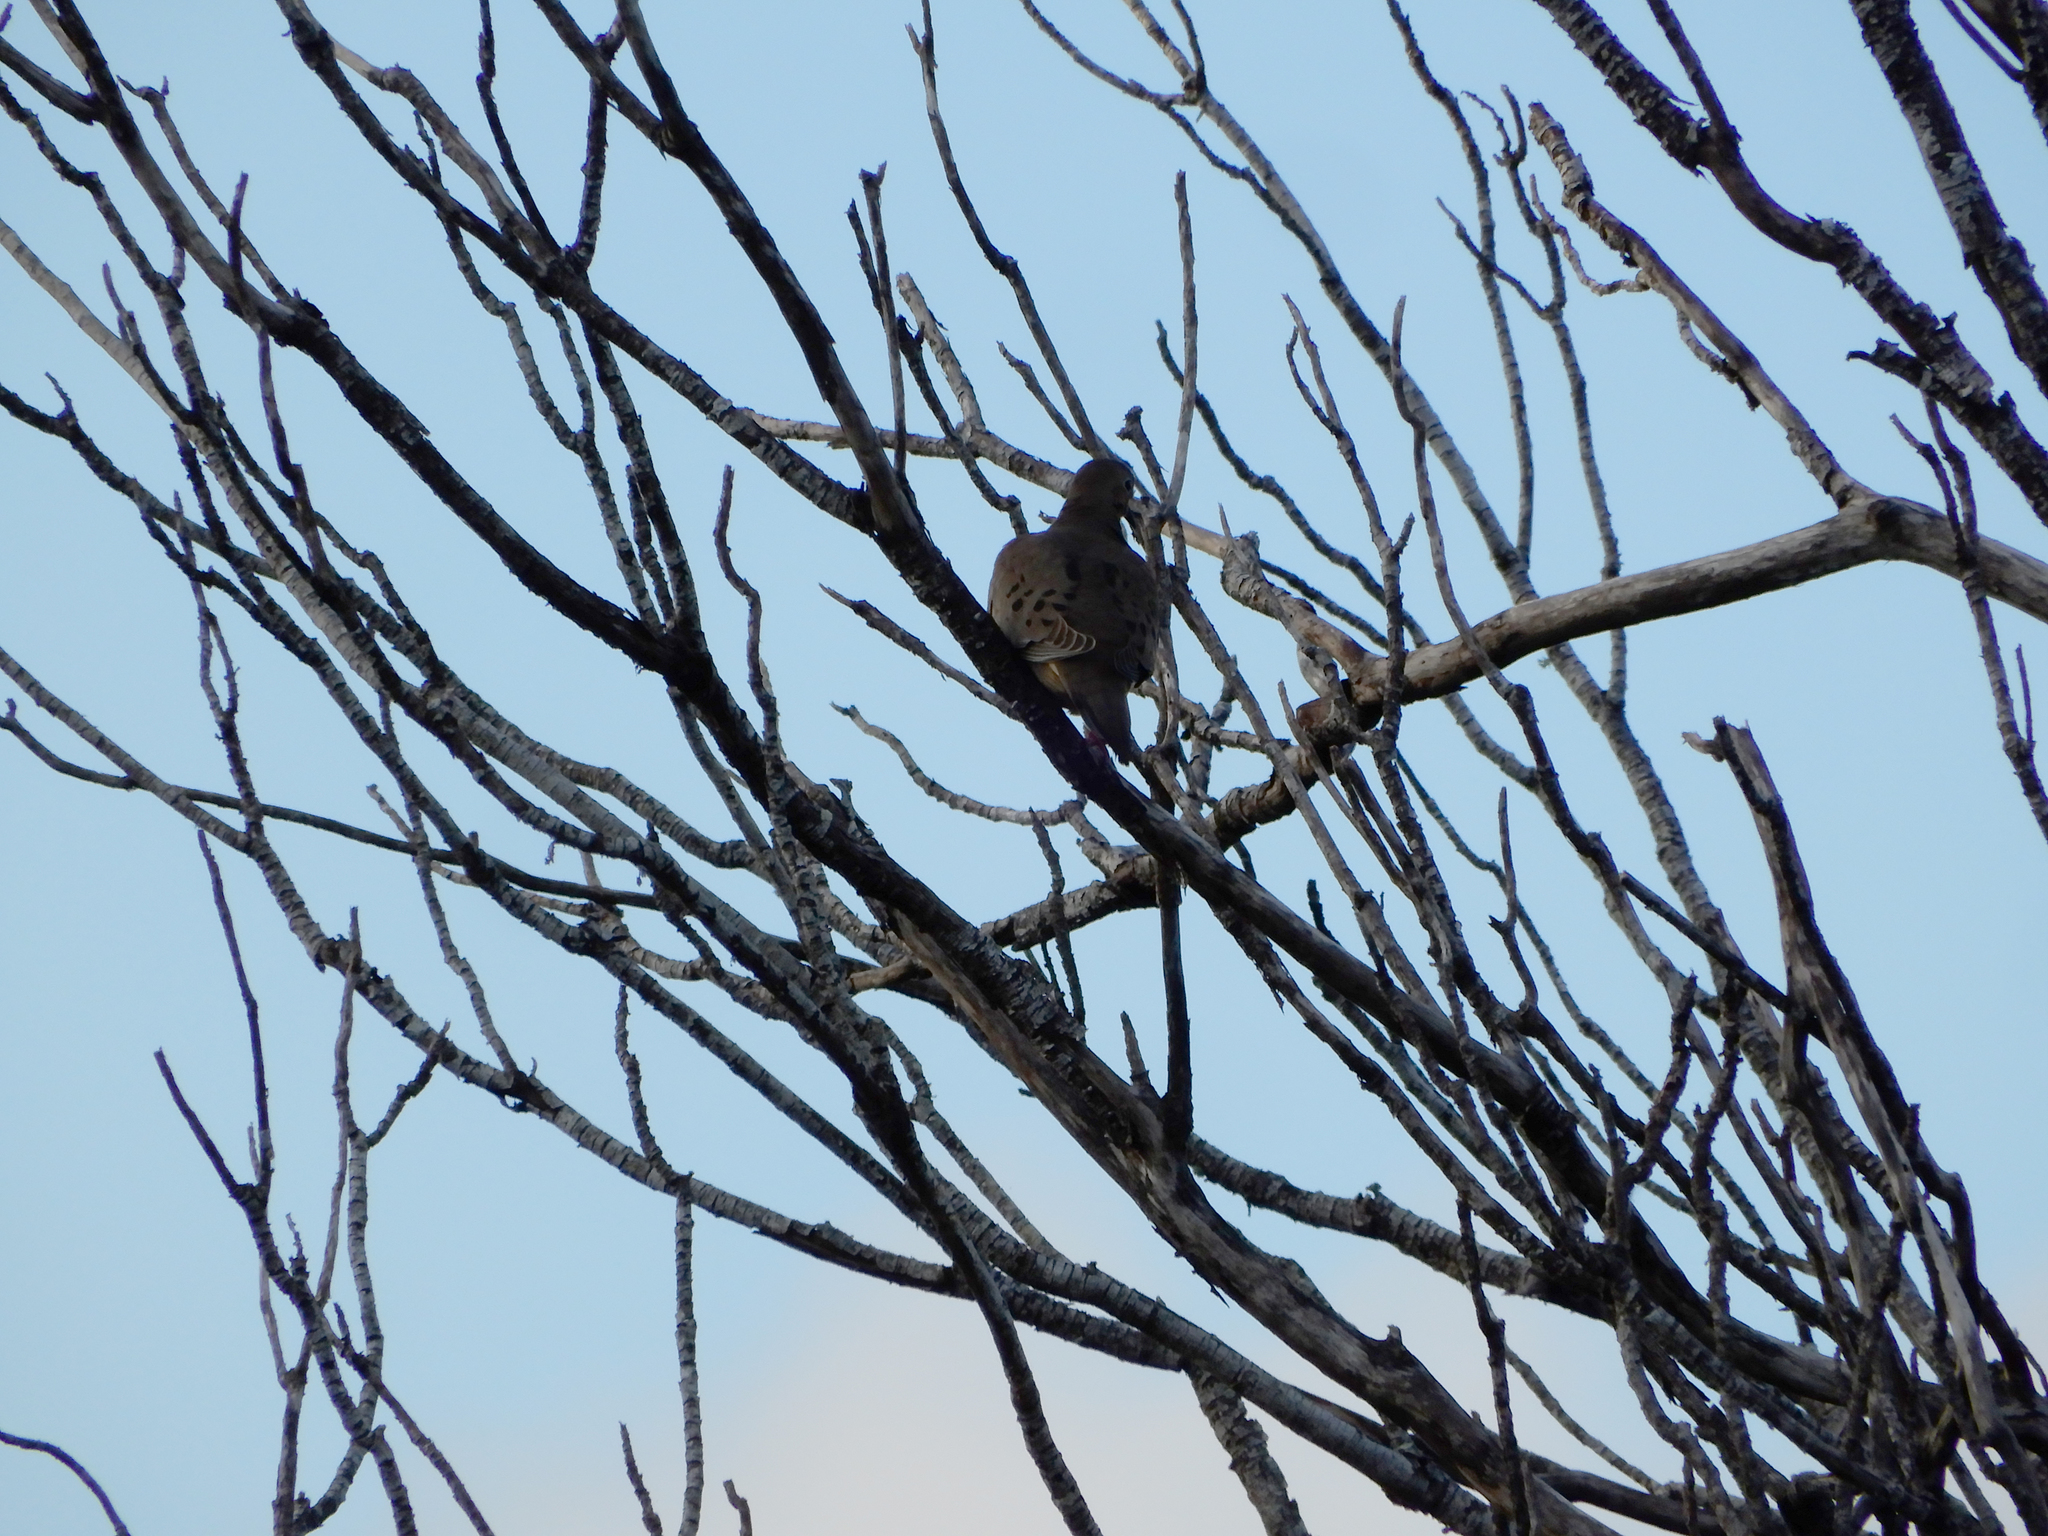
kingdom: Animalia
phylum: Chordata
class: Aves
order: Columbiformes
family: Columbidae
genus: Zenaida
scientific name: Zenaida macroura
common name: Mourning dove
